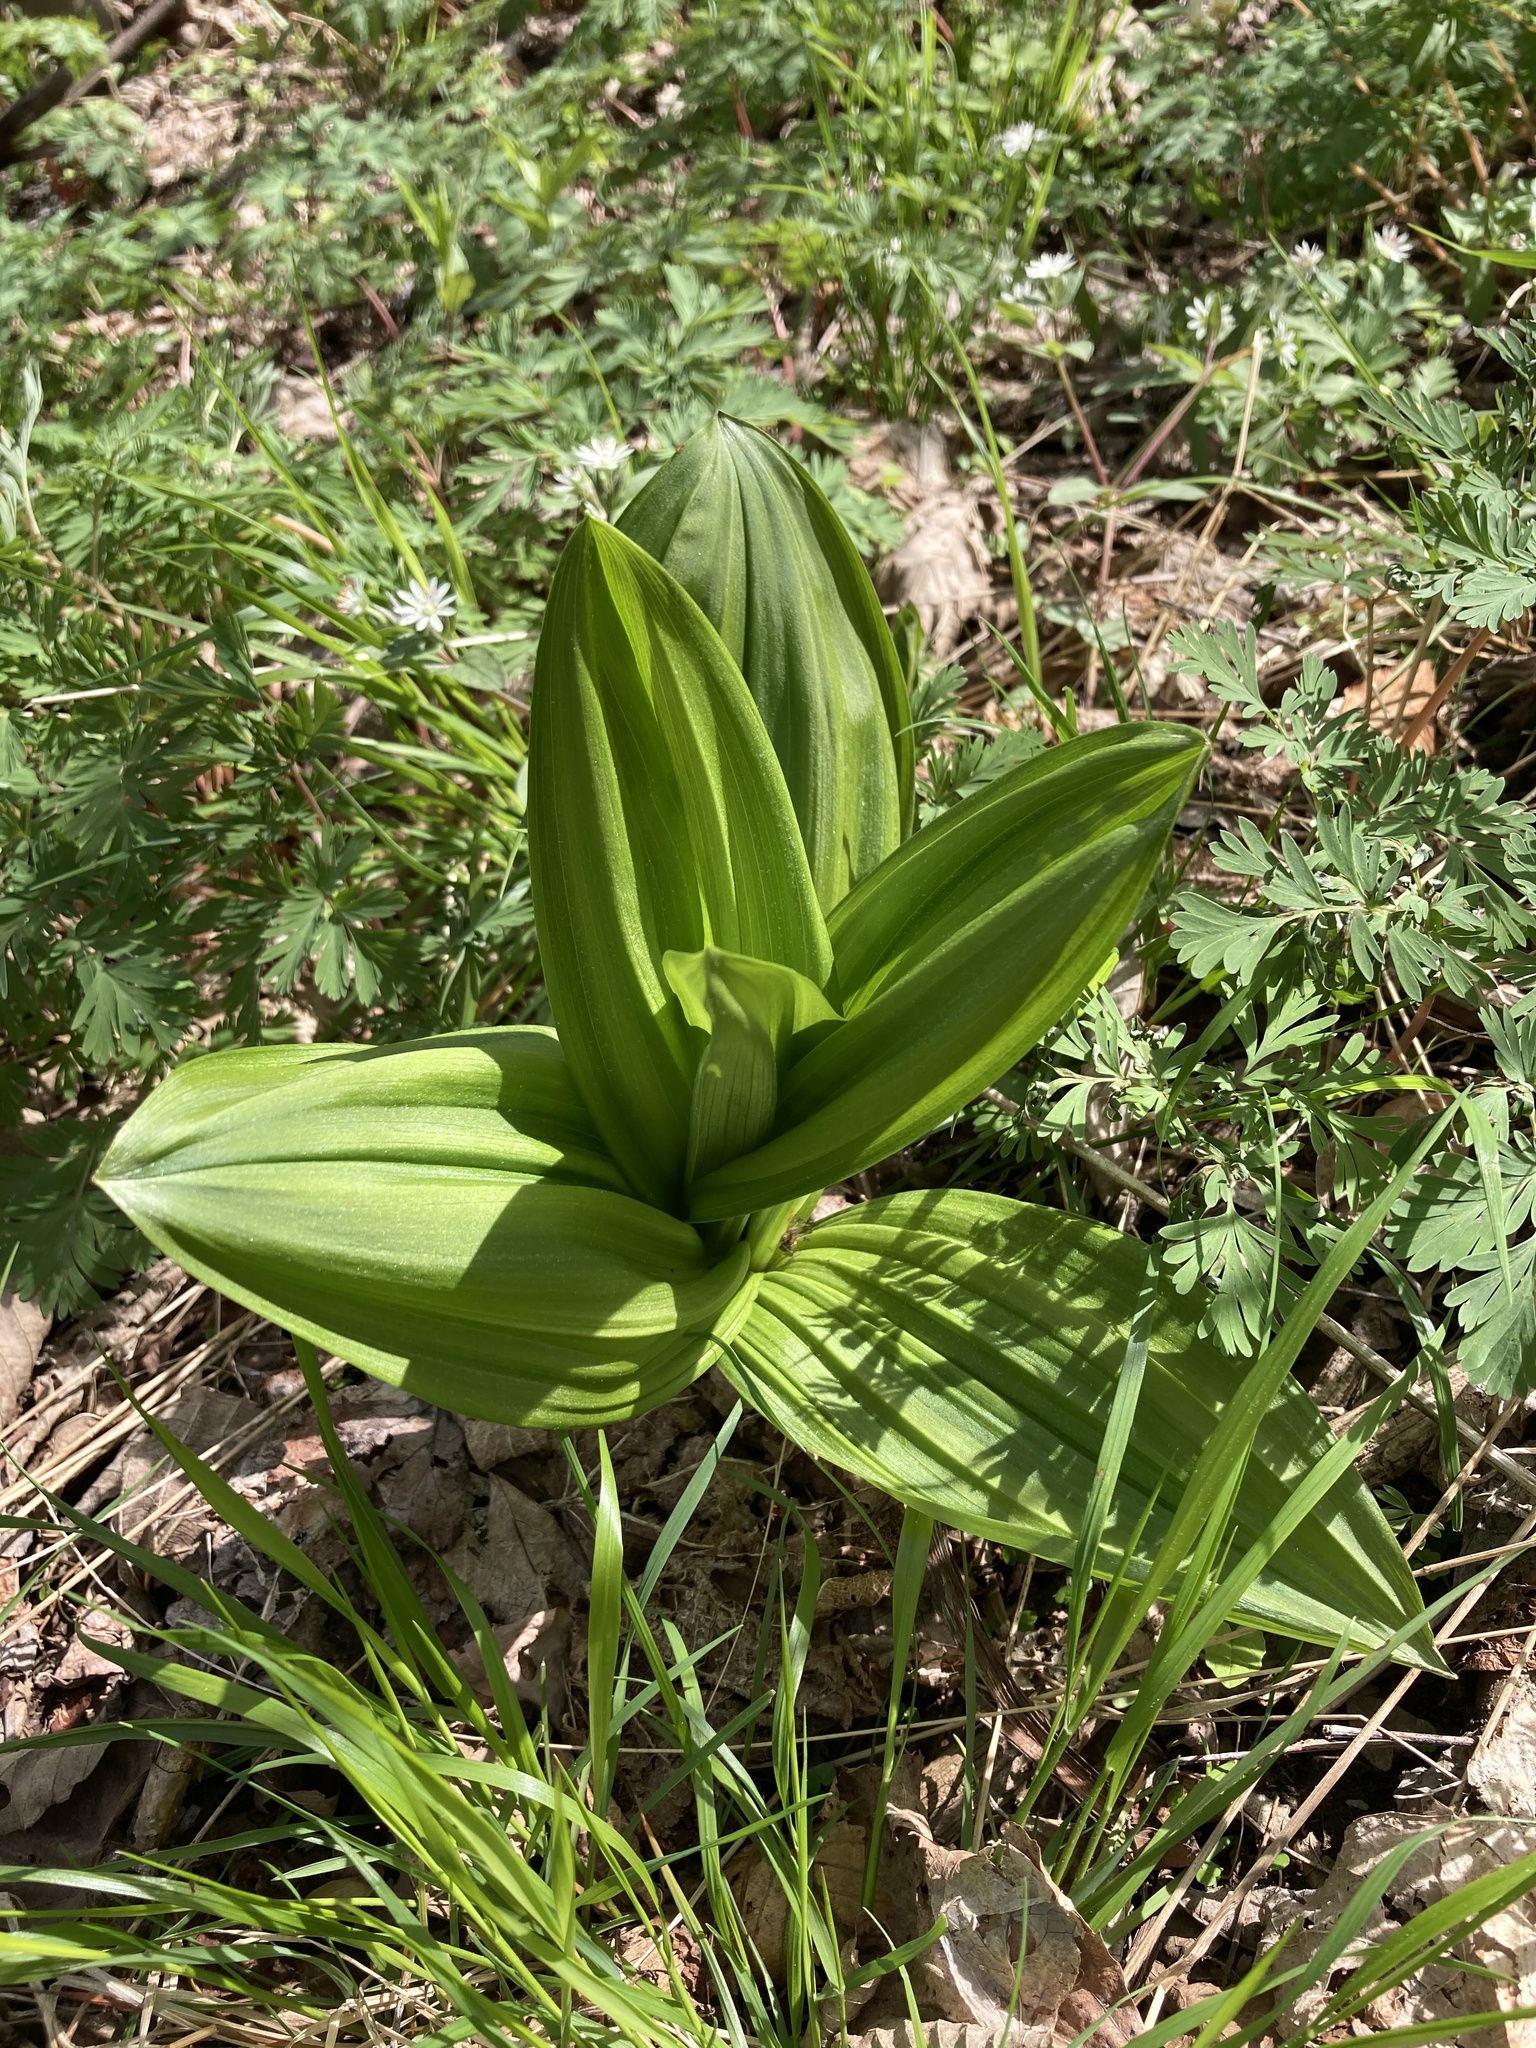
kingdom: Plantae
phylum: Tracheophyta
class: Liliopsida
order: Liliales
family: Melanthiaceae
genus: Veratrum
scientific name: Veratrum viride
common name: American false hellebore
